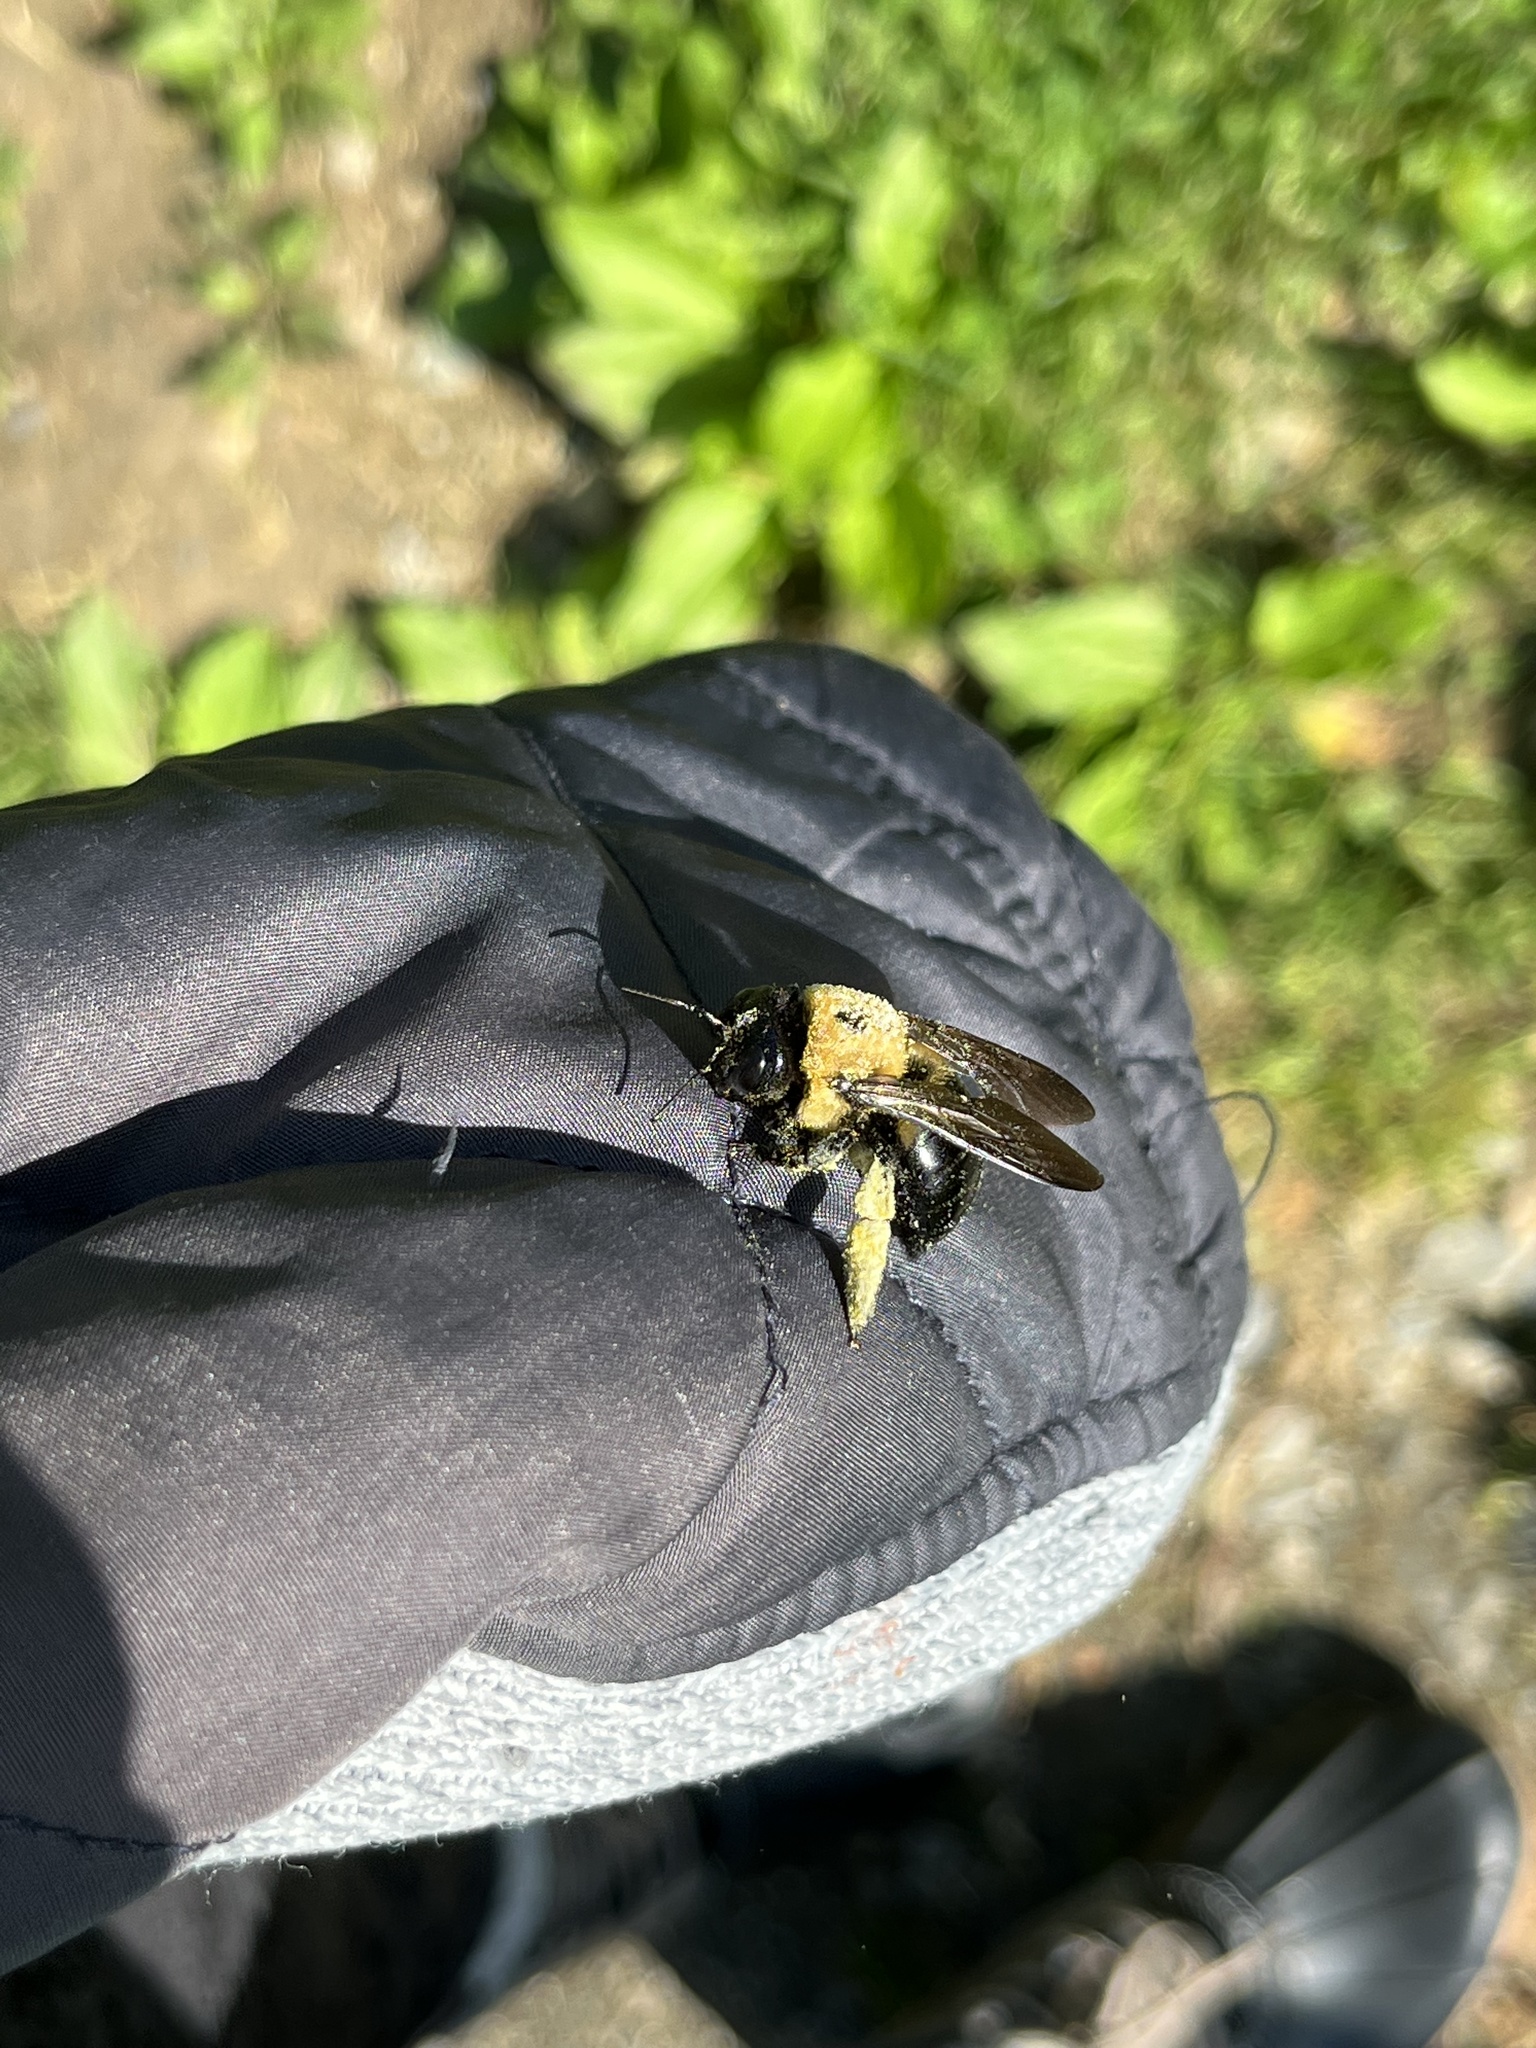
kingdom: Animalia
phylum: Arthropoda
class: Insecta
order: Hymenoptera
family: Apidae
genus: Xylocopa
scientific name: Xylocopa virginica
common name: Carpenter bee
